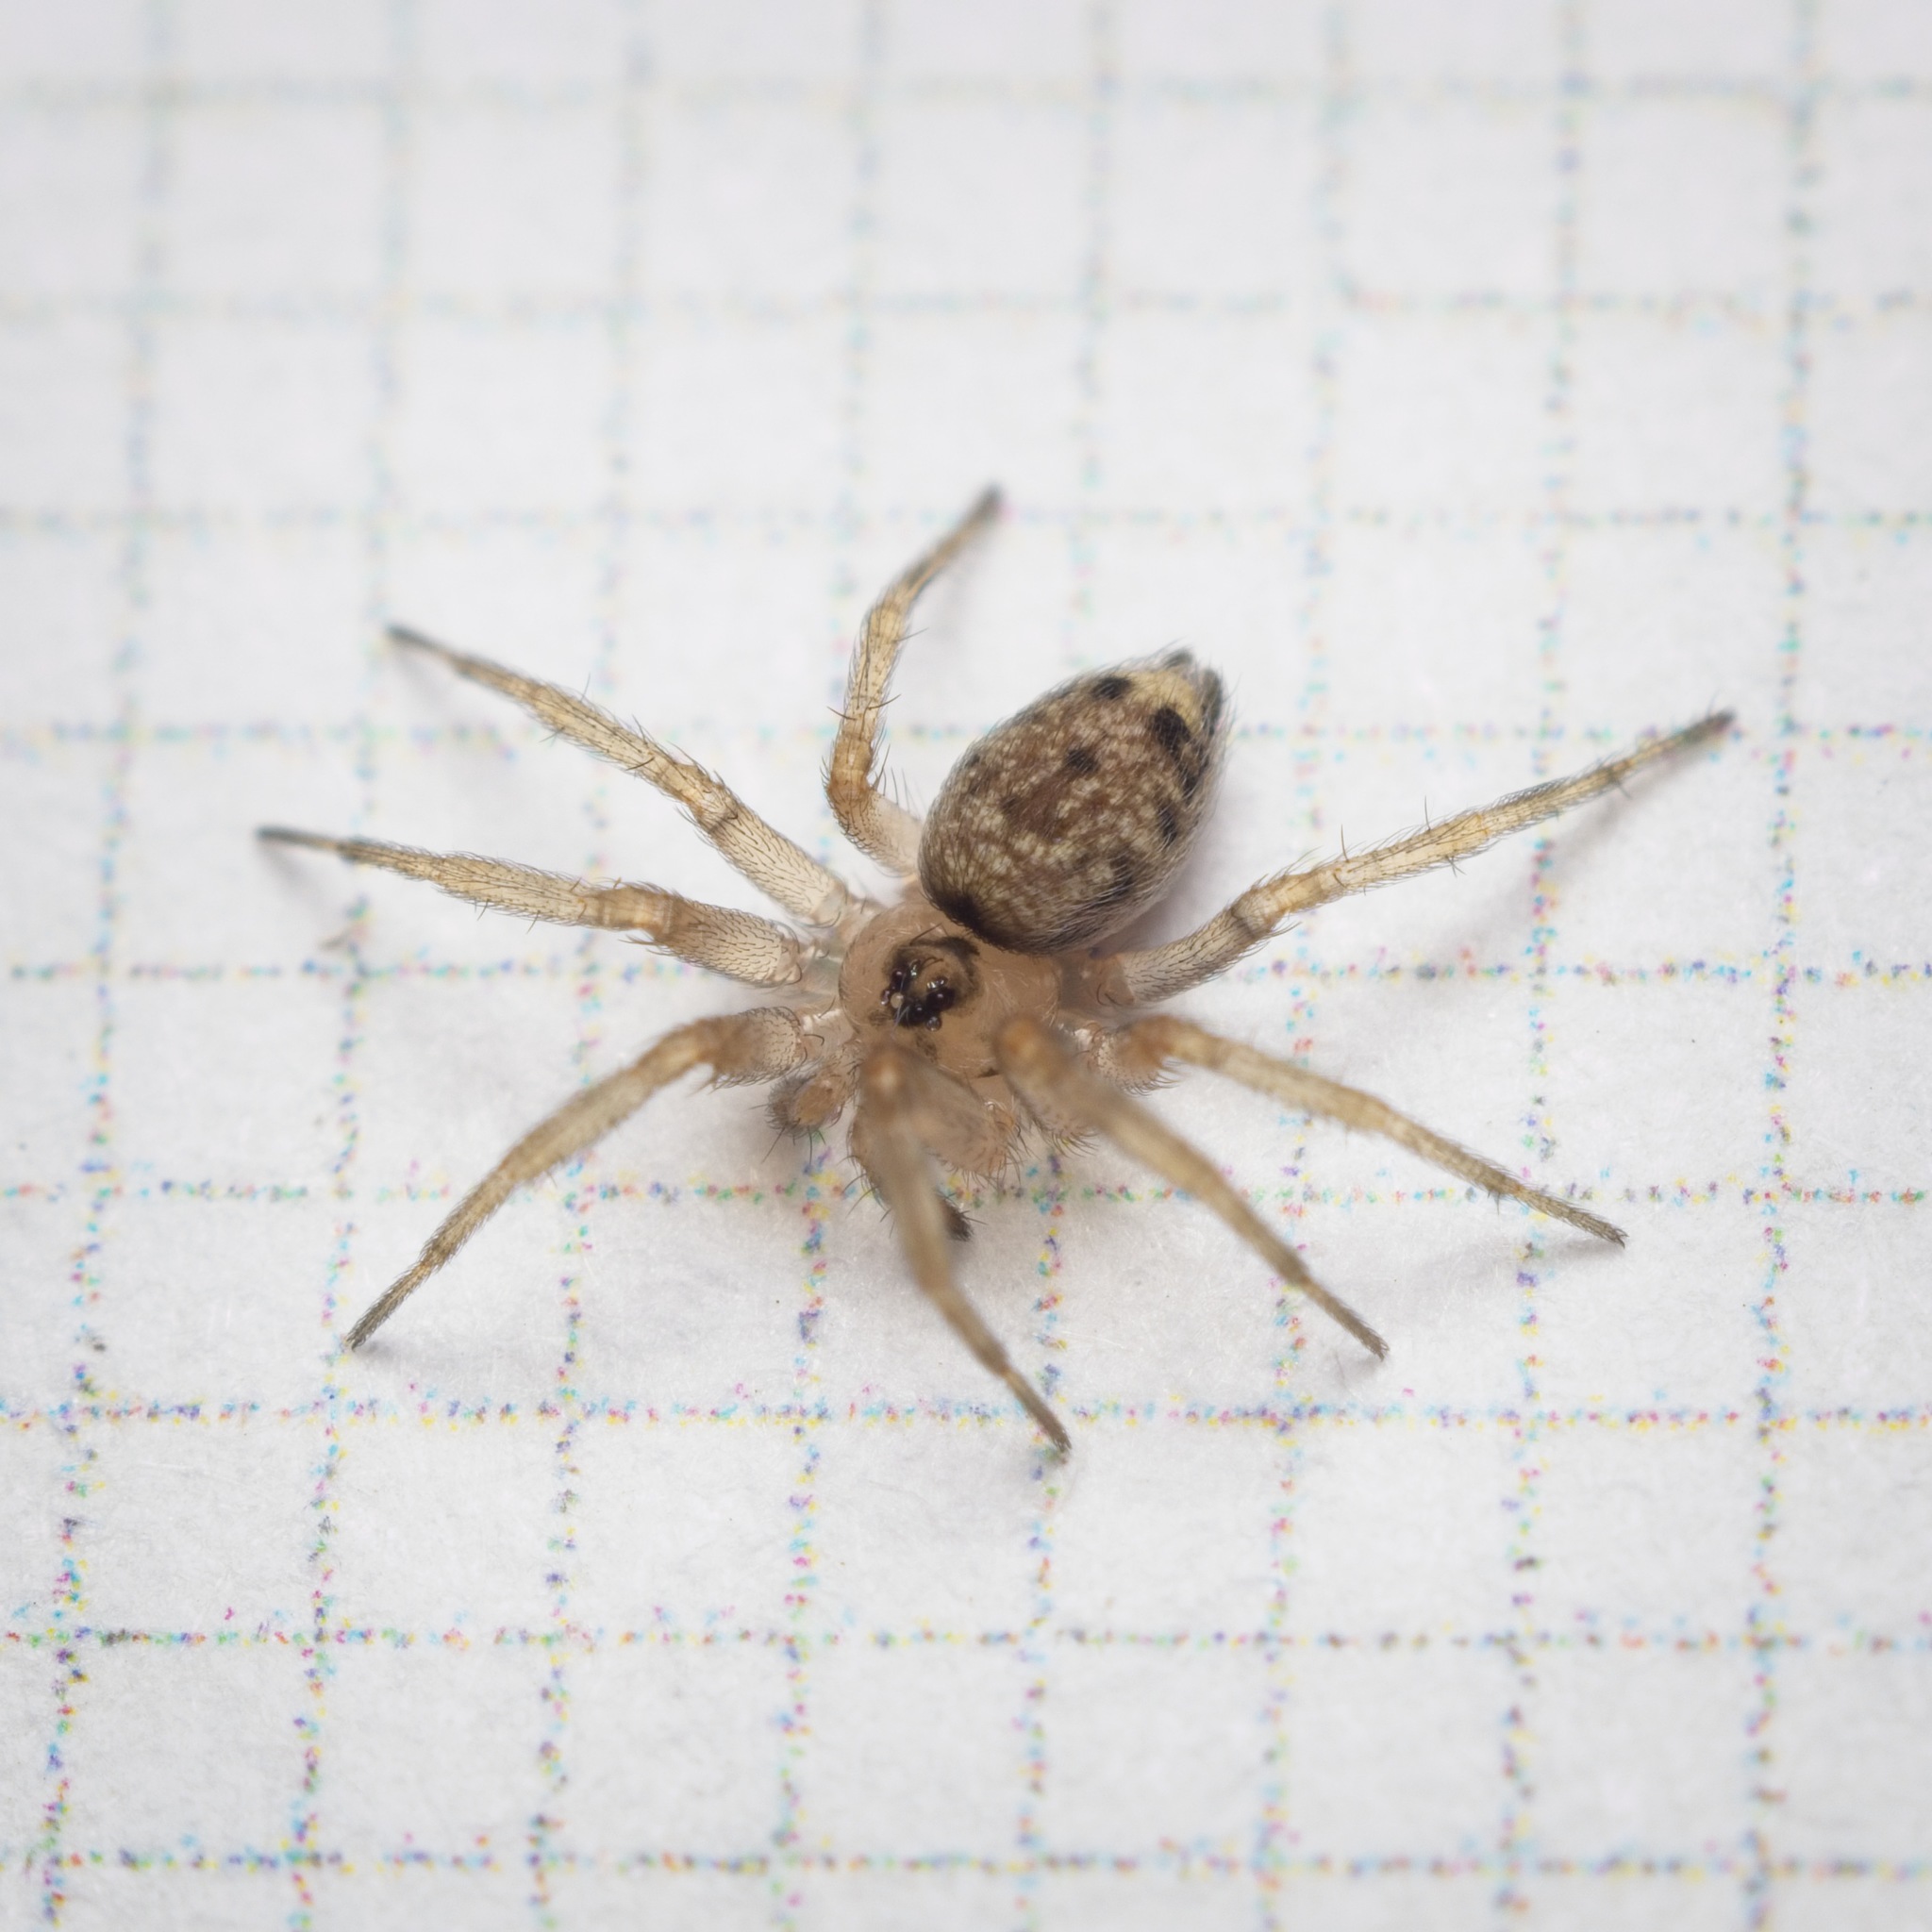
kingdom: Animalia
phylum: Arthropoda
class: Arachnida
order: Araneae
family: Oecobiidae
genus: Oecobius
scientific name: Oecobius navus
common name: Flatmesh weaver
